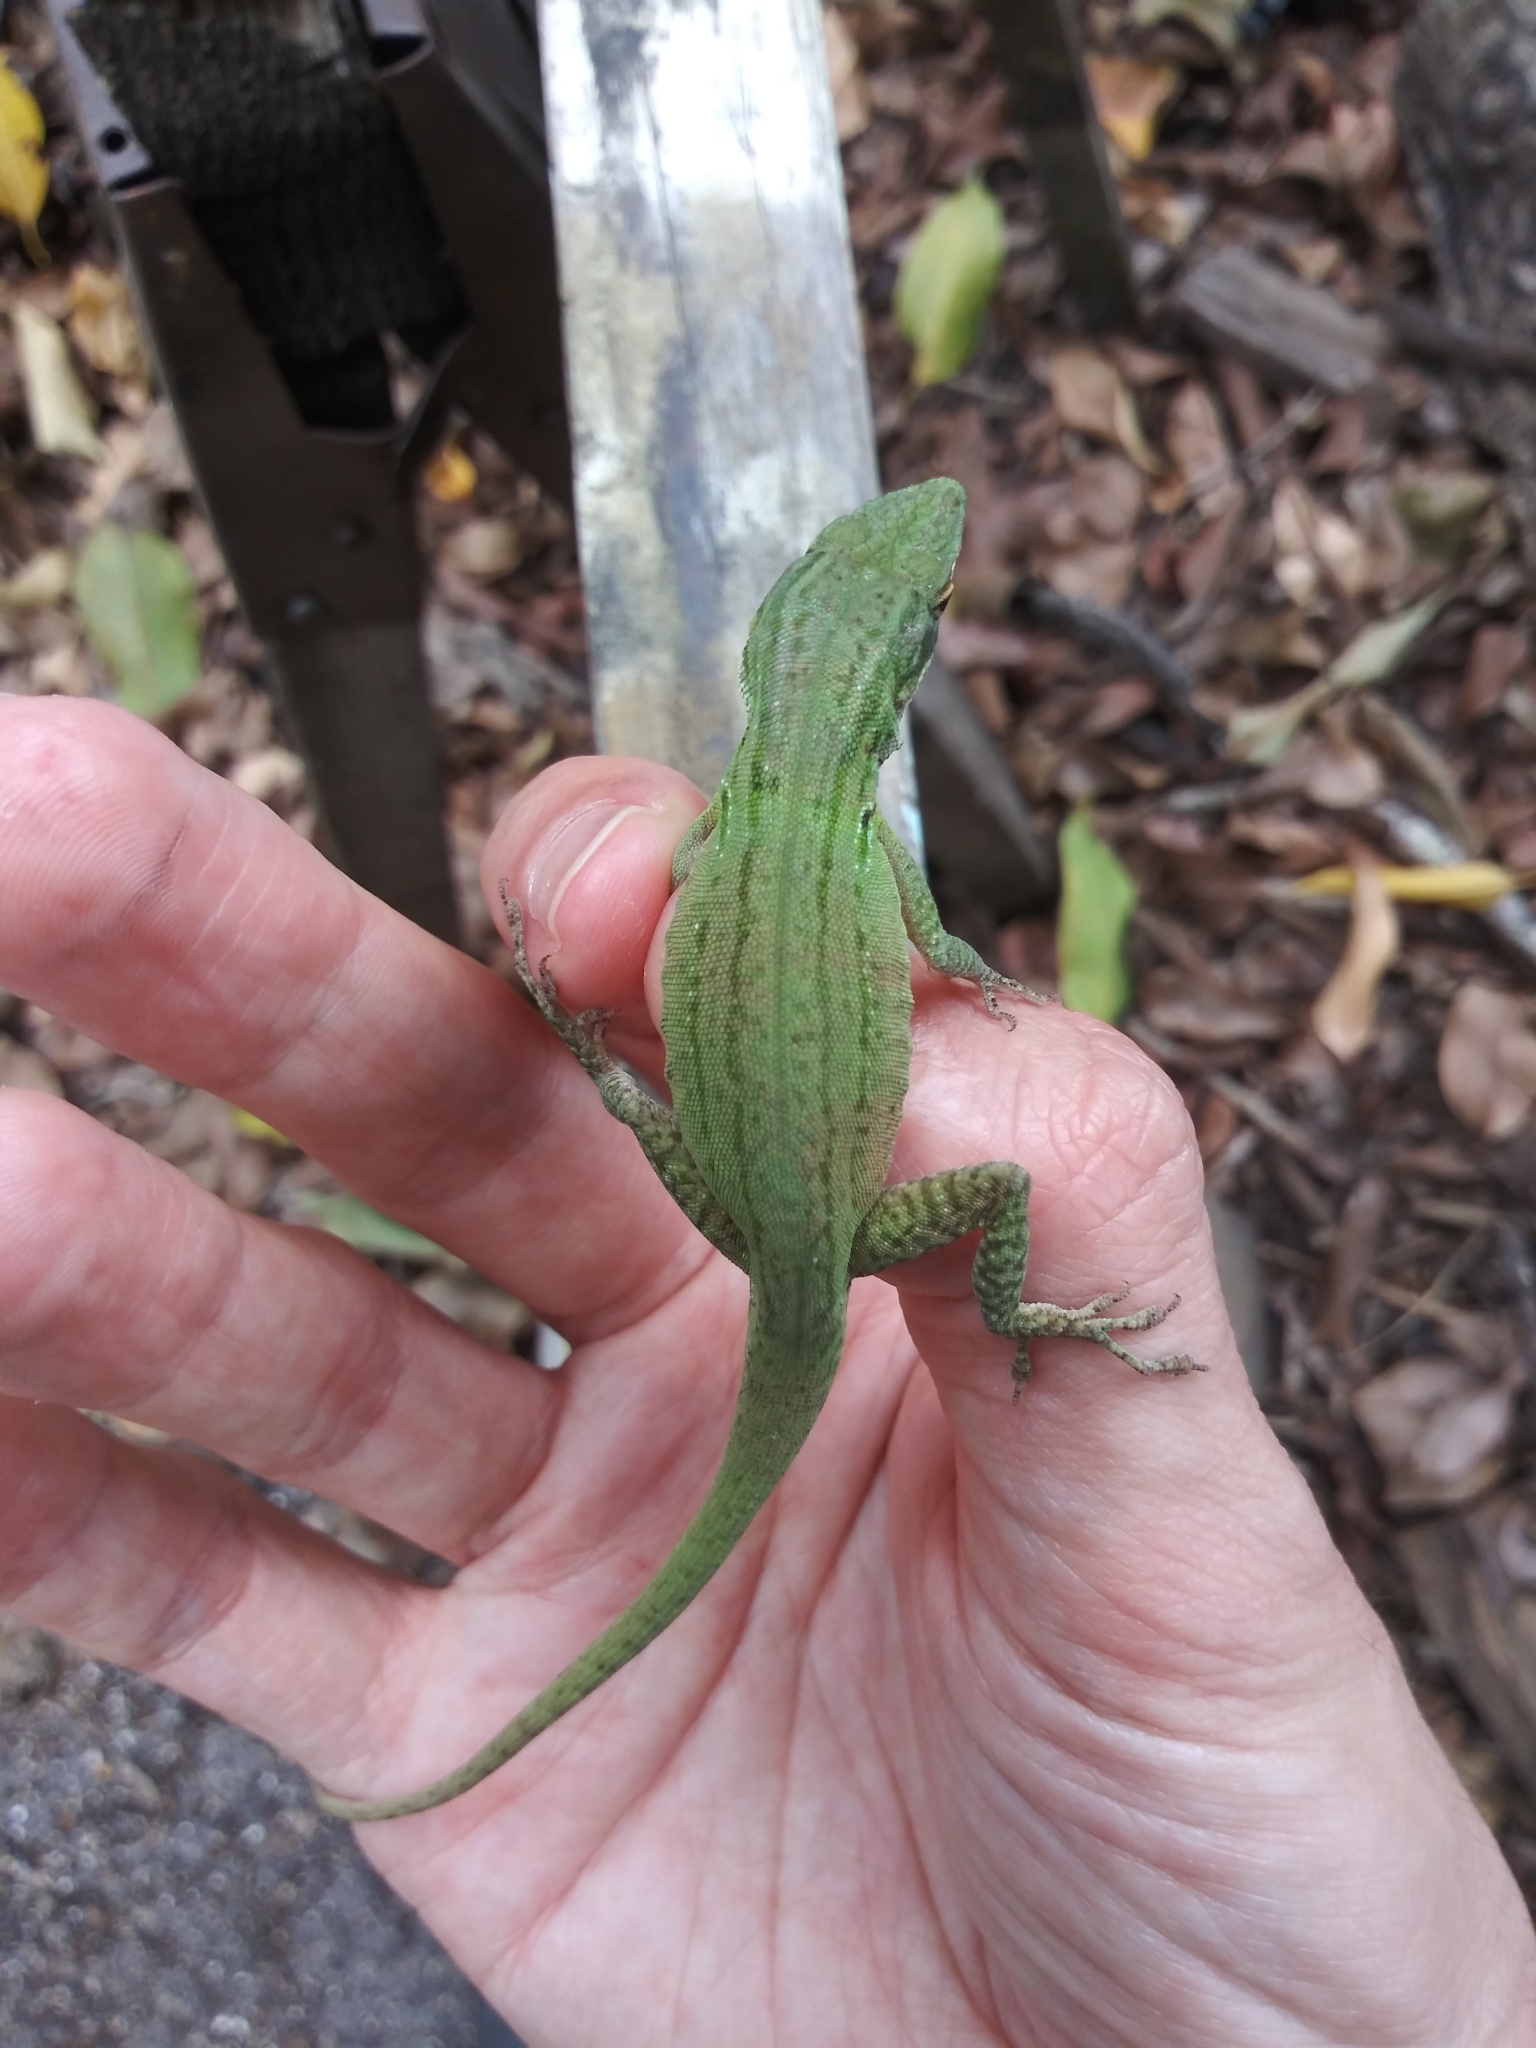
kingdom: Animalia
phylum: Chordata
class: Squamata
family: Dactyloidae
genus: Anolis
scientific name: Anolis carolinensis
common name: Green anole
